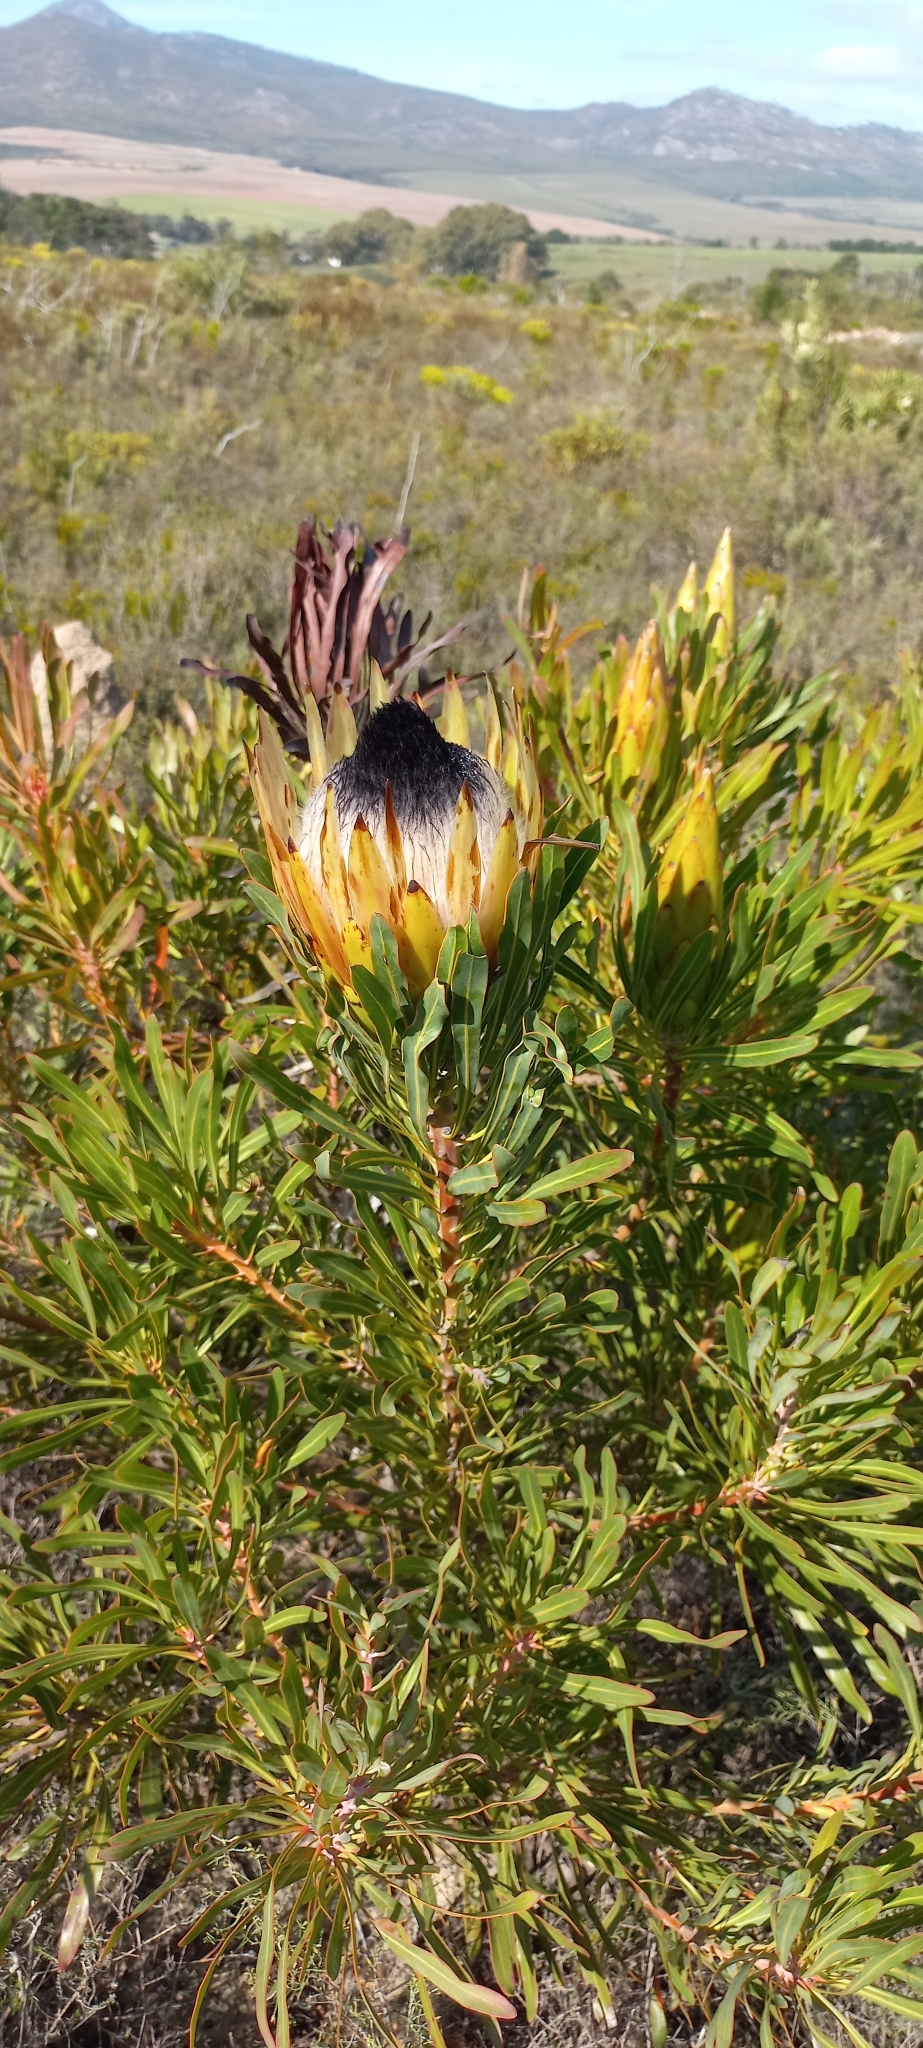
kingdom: Plantae
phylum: Tracheophyta
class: Magnoliopsida
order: Proteales
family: Proteaceae
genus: Protea
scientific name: Protea longifolia
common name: Long-leaf sugarbush
